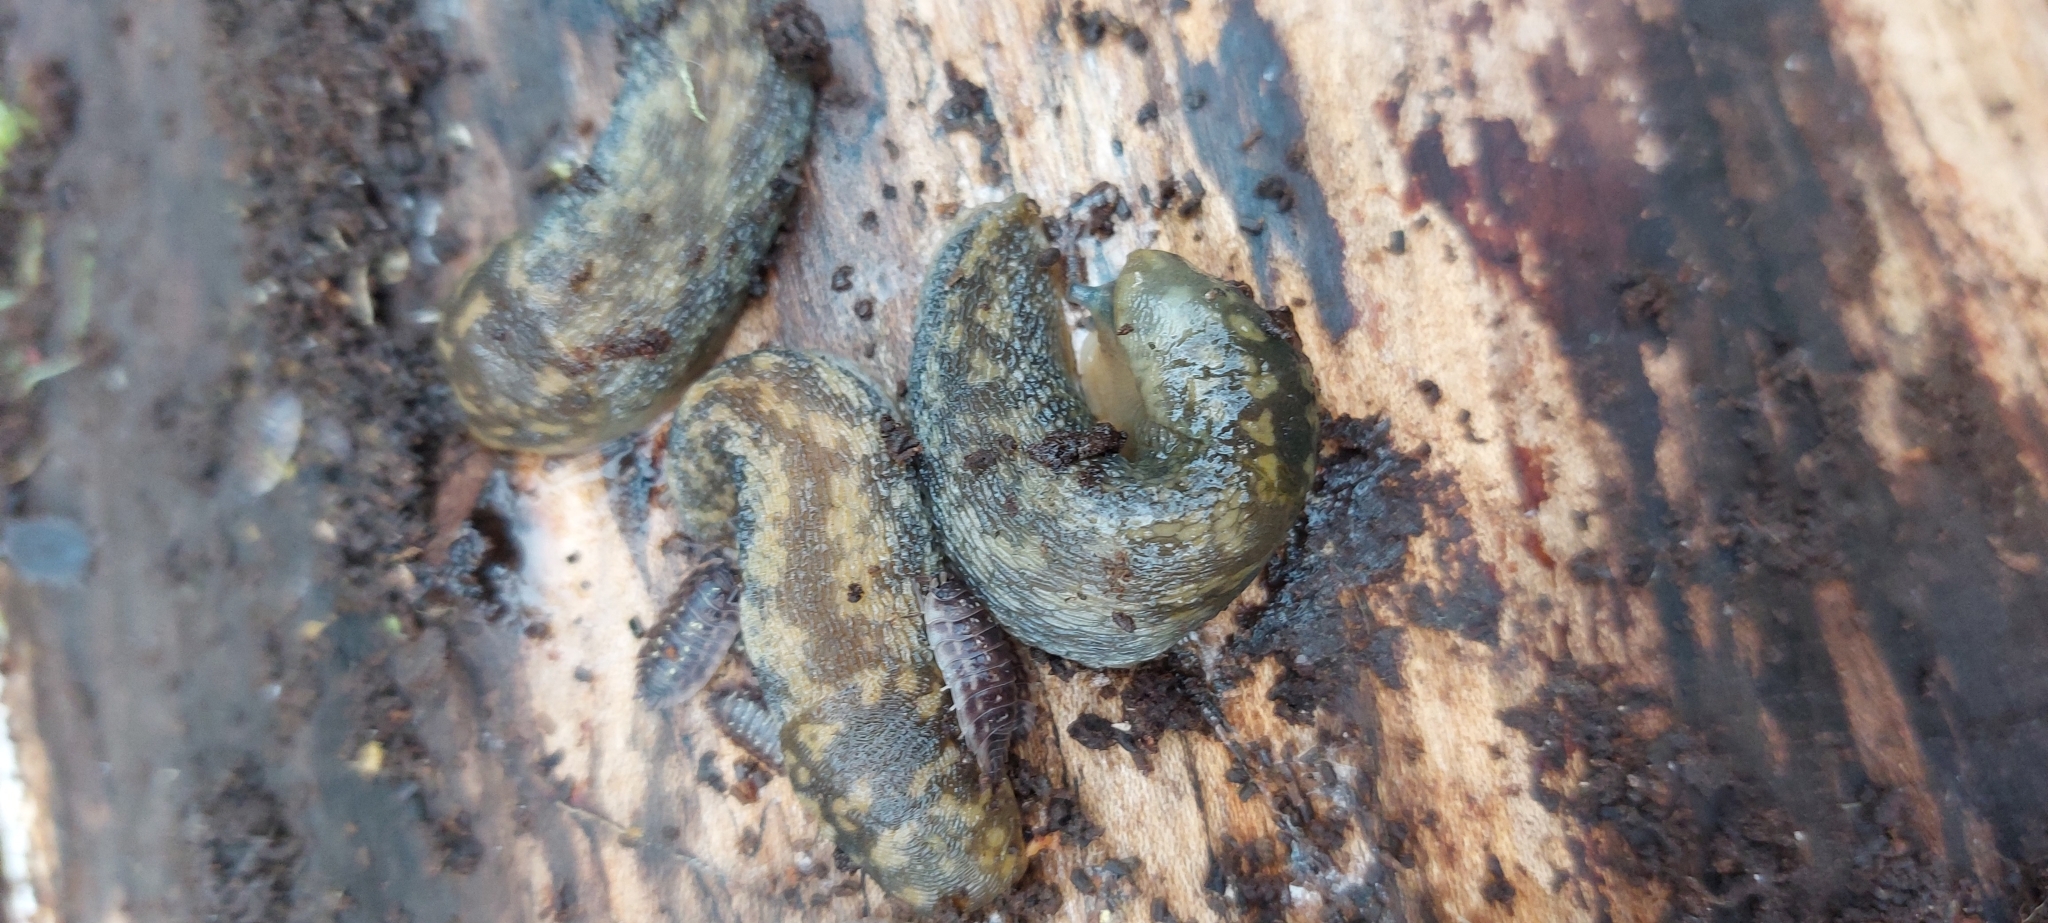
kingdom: Animalia
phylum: Arthropoda
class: Malacostraca
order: Isopoda
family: Oniscidae
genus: Oniscus
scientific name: Oniscus asellus
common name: Common shiny woodlouse
